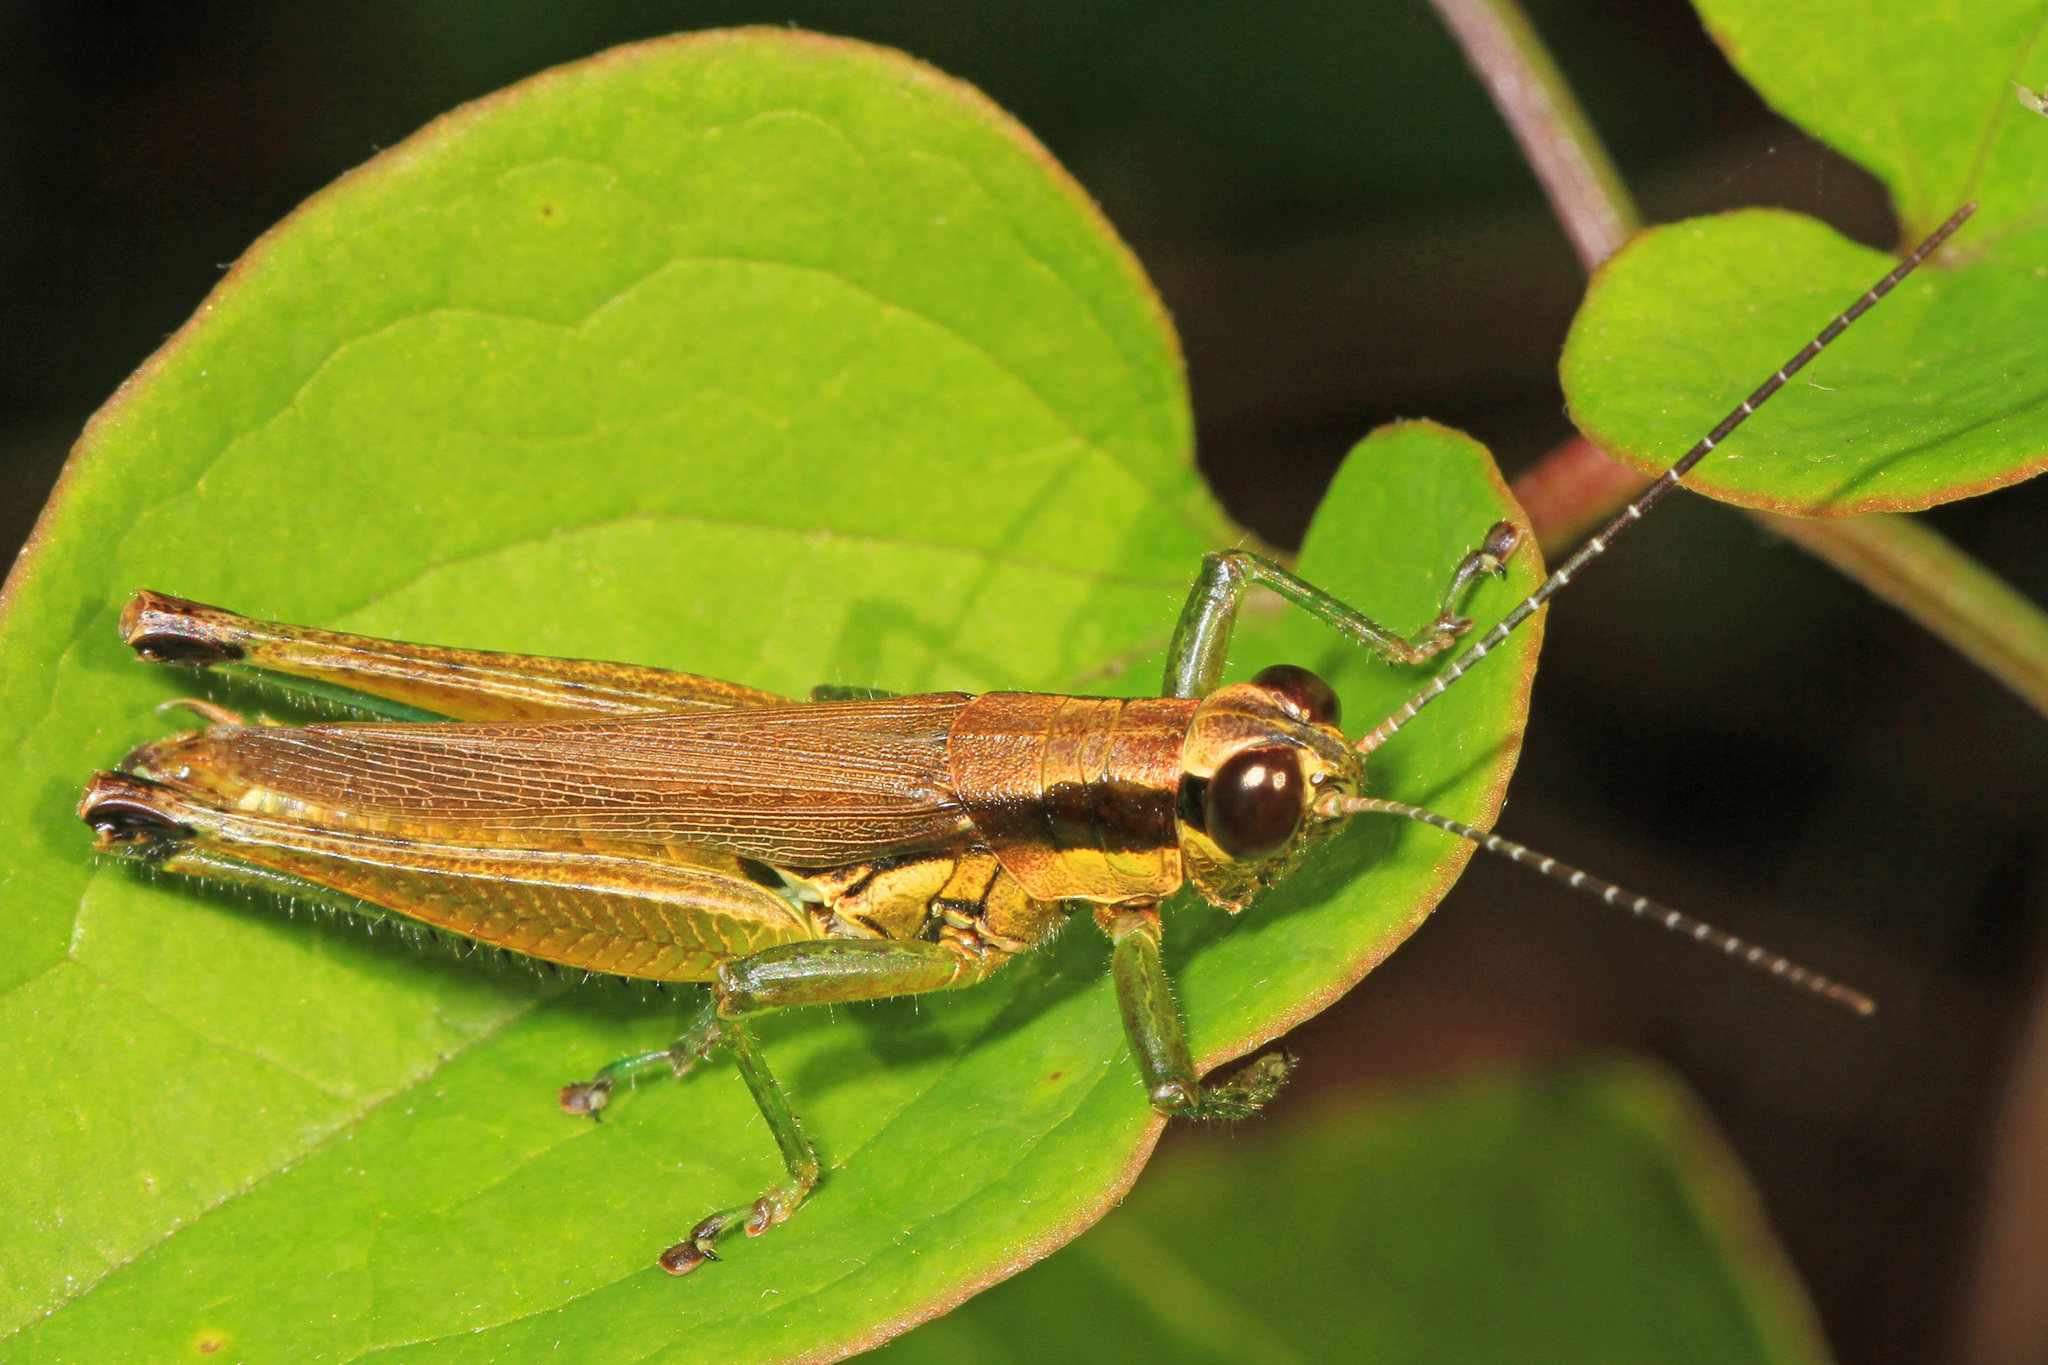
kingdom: Animalia
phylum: Arthropoda
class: Insecta
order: Orthoptera
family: Acrididae
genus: Paroxya
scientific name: Paroxya clavuligera
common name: Olive-green swamp grasshopper
